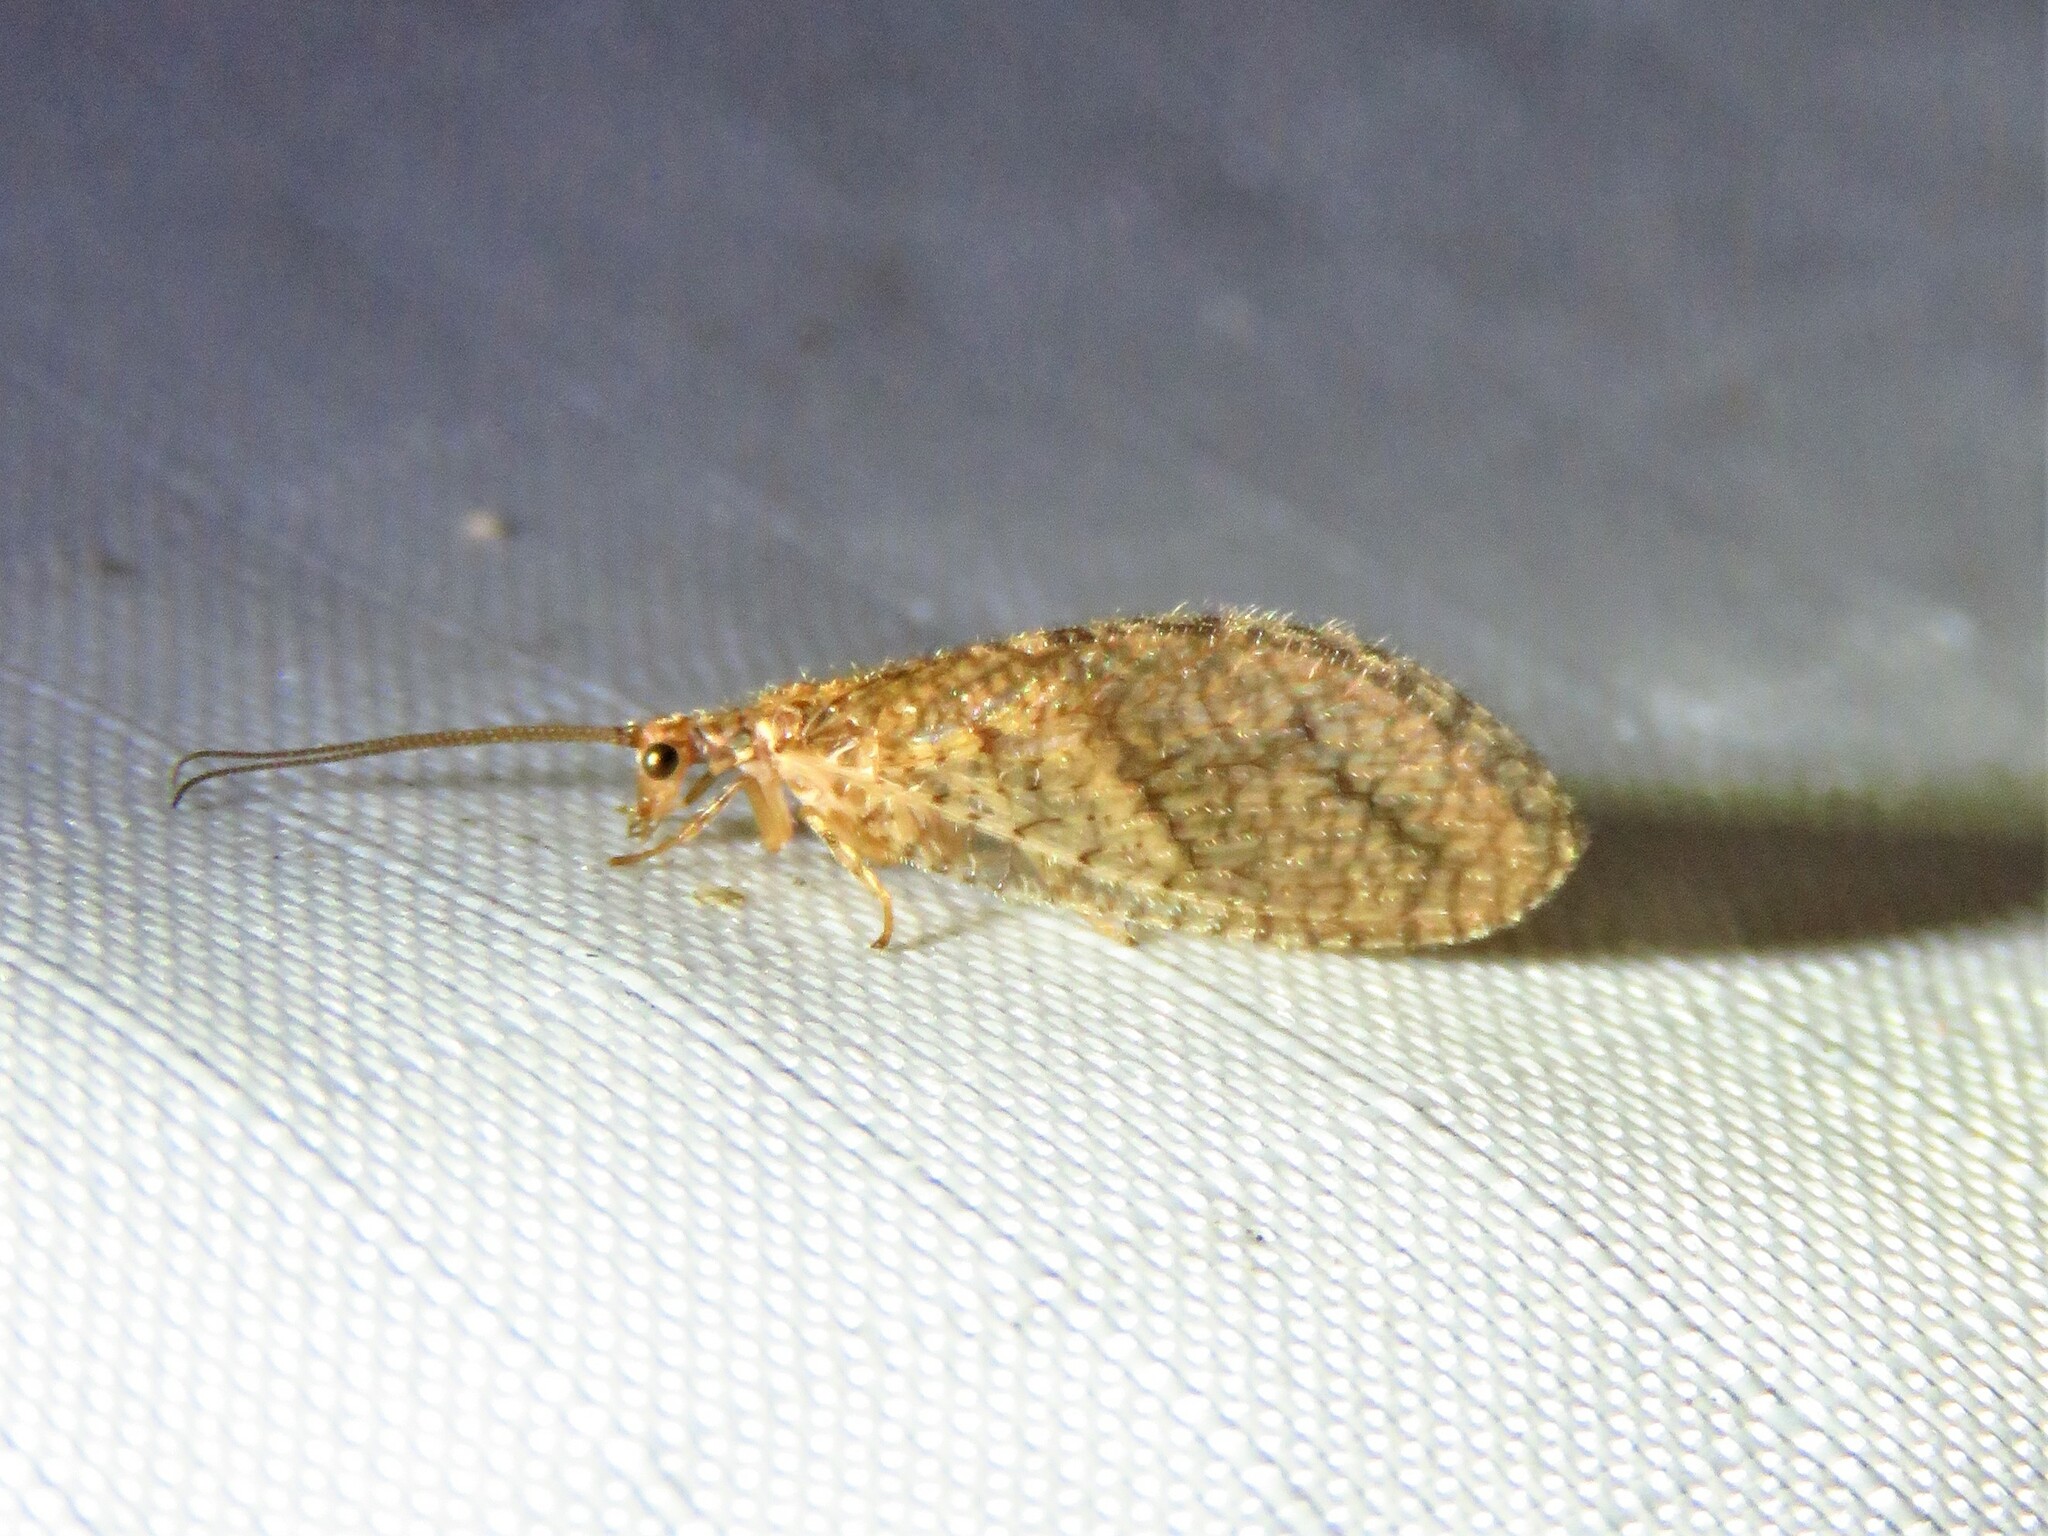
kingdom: Animalia
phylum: Arthropoda
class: Insecta
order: Neuroptera
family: Hemerobiidae
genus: Micromus
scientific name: Micromus posticus
